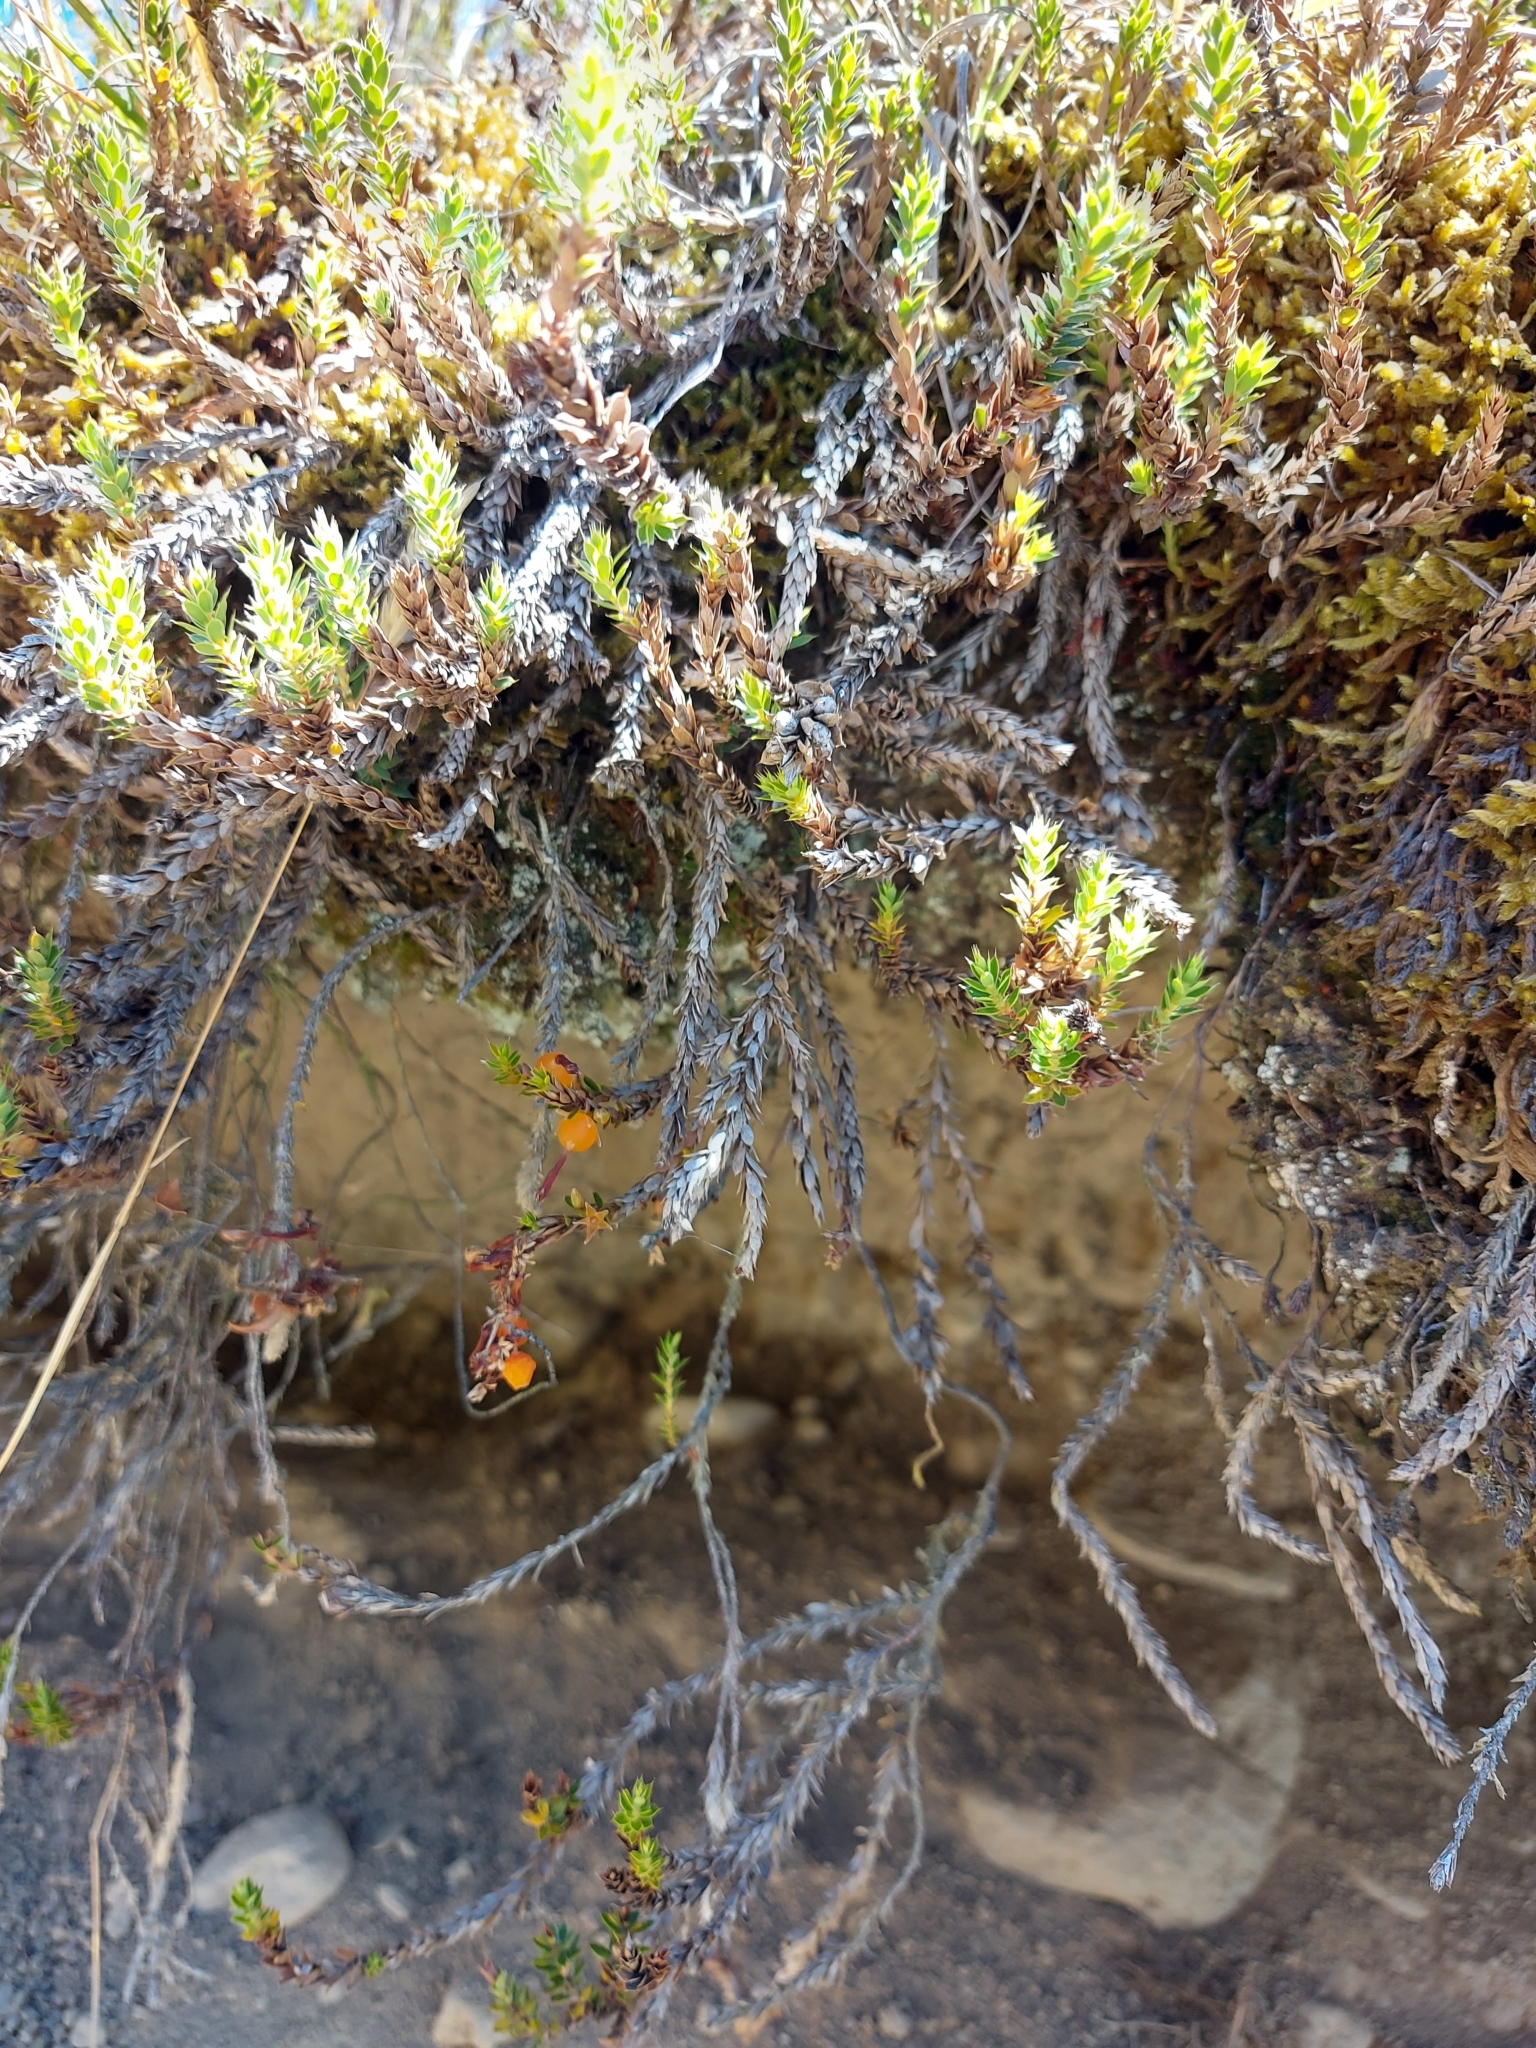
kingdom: Plantae
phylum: Tracheophyta
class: Magnoliopsida
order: Ericales
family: Ericaceae
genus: Styphelia
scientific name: Styphelia nesophila
